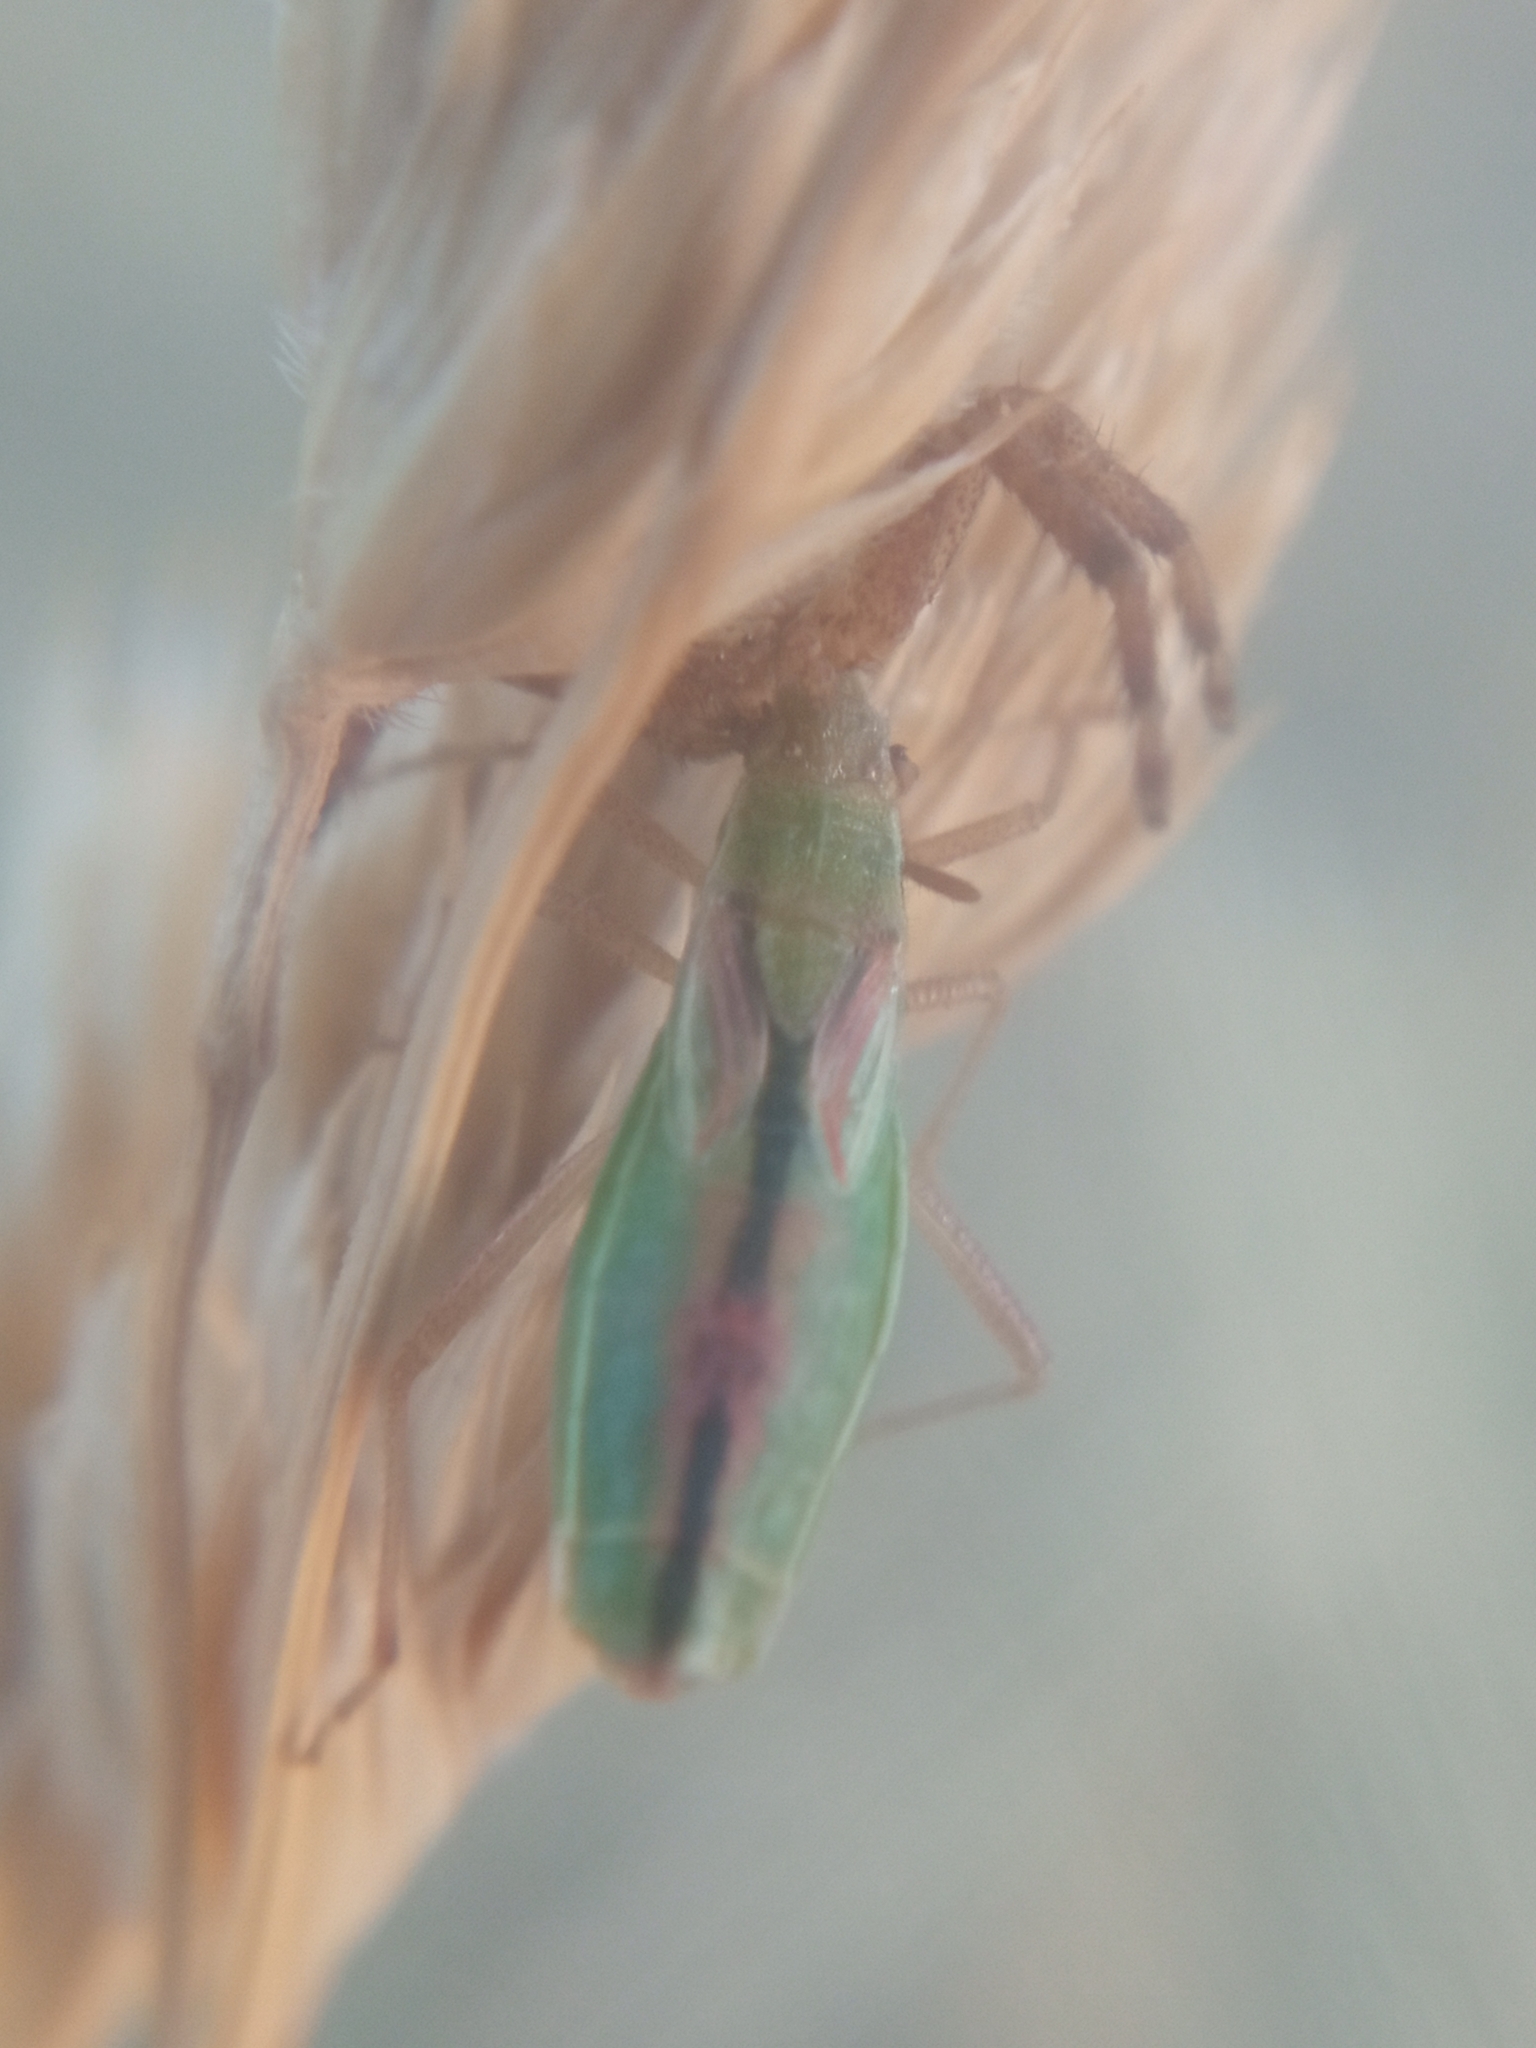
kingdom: Animalia
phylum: Arthropoda
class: Insecta
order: Hemiptera
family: Rhopalidae
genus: Myrmus
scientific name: Myrmus miriformis
